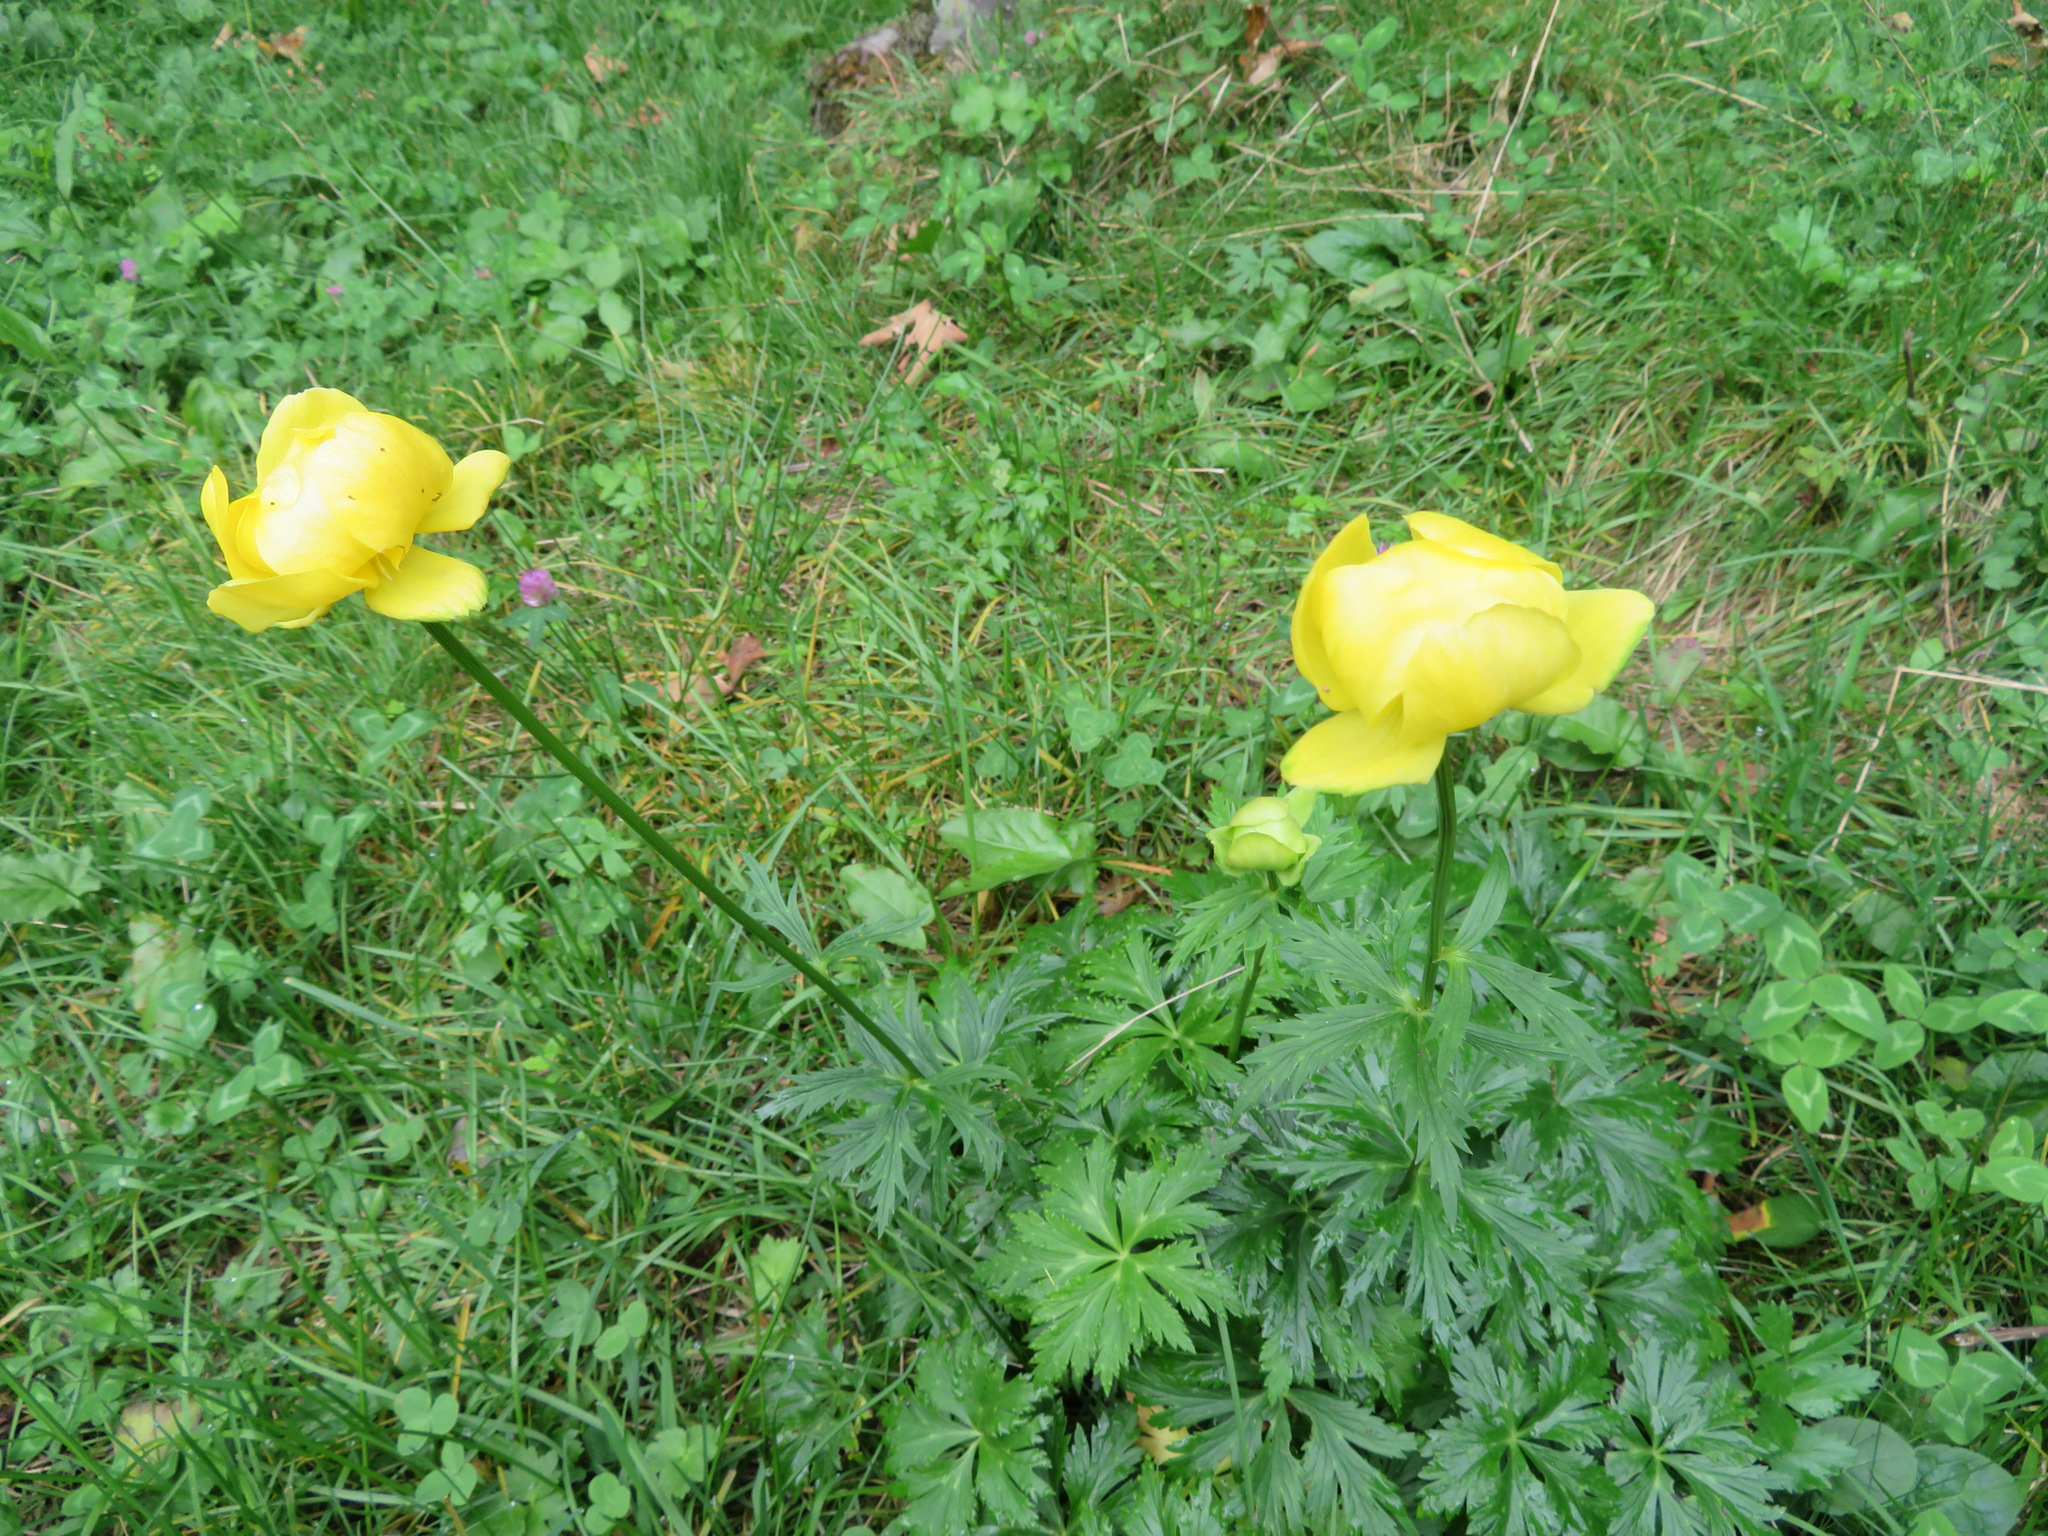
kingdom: Plantae
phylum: Tracheophyta
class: Magnoliopsida
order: Ranunculales
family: Ranunculaceae
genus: Trollius
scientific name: Trollius europaeus
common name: European globeflower
